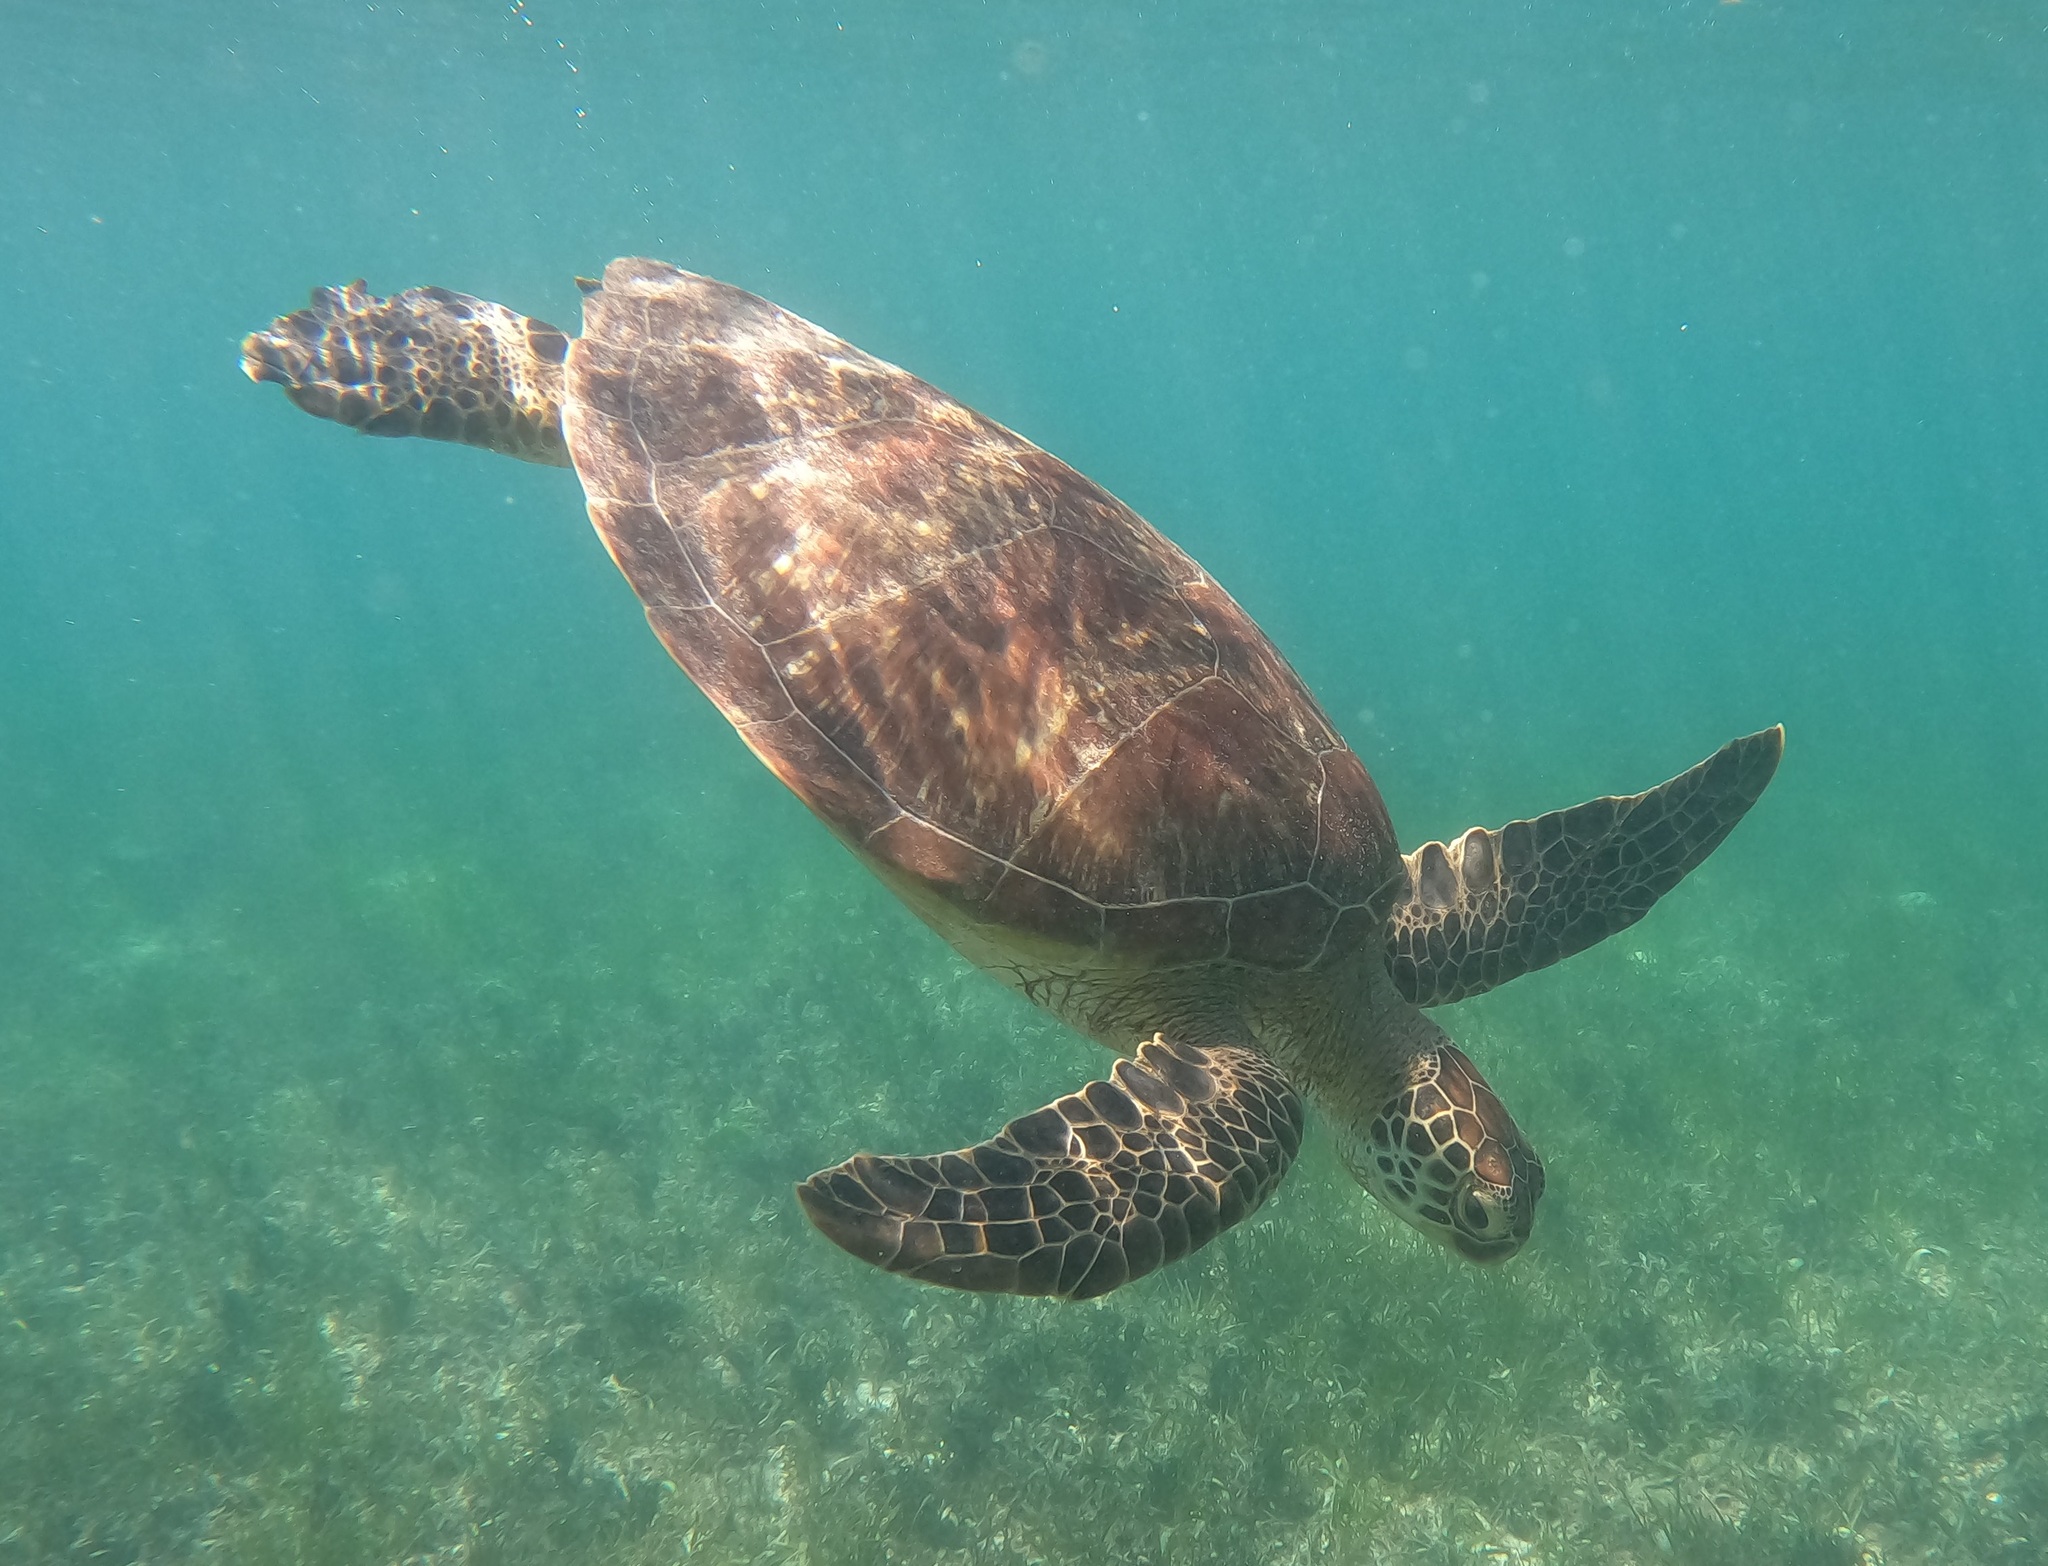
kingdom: Animalia
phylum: Chordata
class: Testudines
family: Cheloniidae
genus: Chelonia
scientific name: Chelonia mydas
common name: Green turtle
